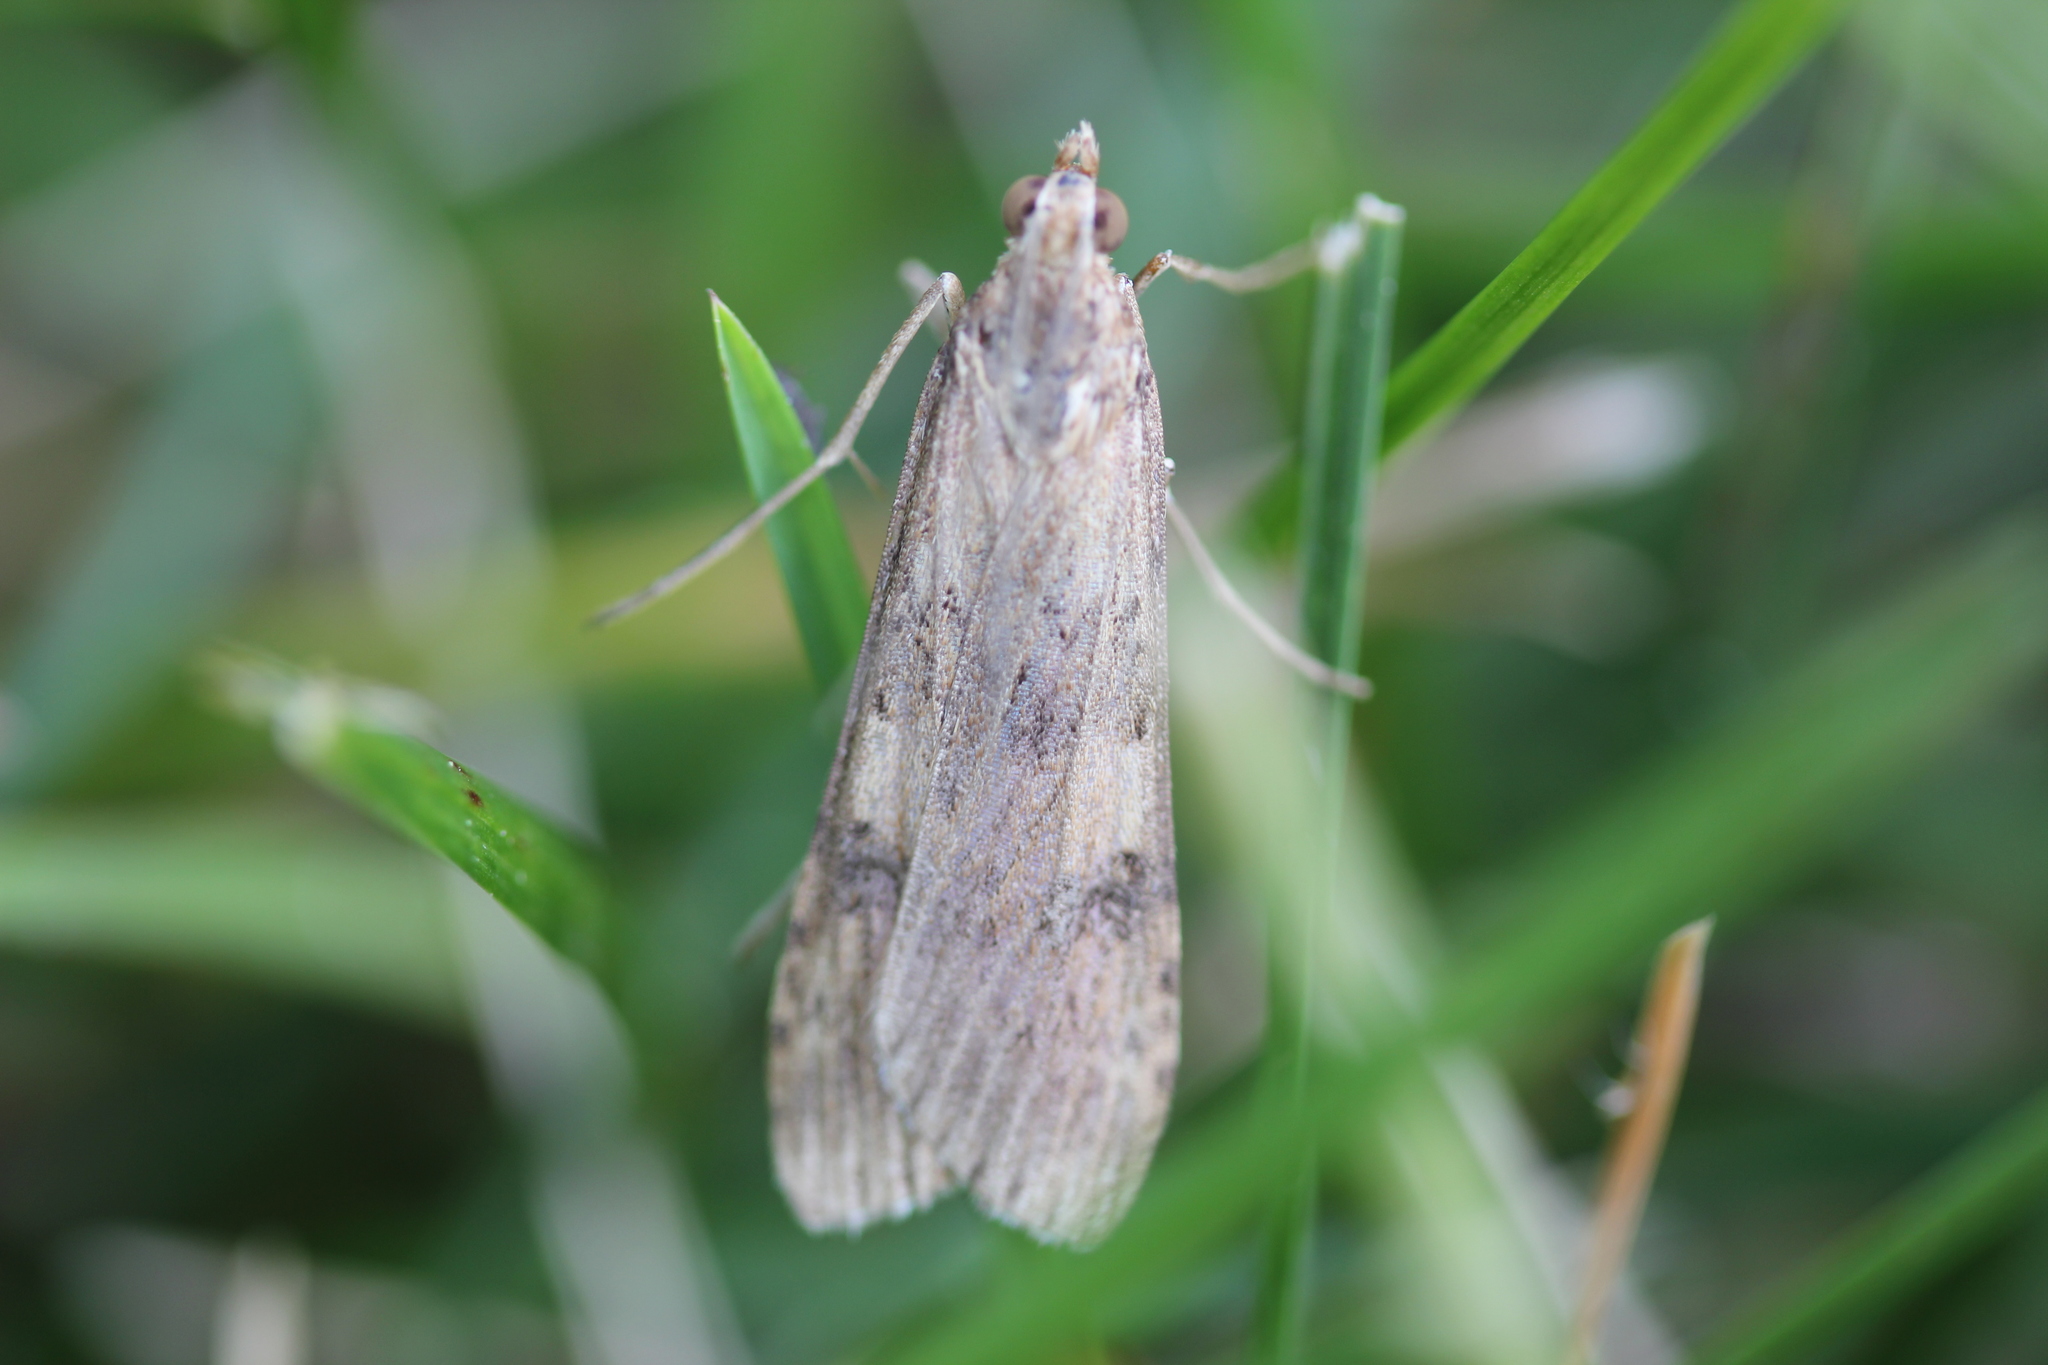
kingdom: Animalia
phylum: Arthropoda
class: Insecta
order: Lepidoptera
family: Crambidae
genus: Nomophila
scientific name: Nomophila nearctica
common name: American rush veneer
